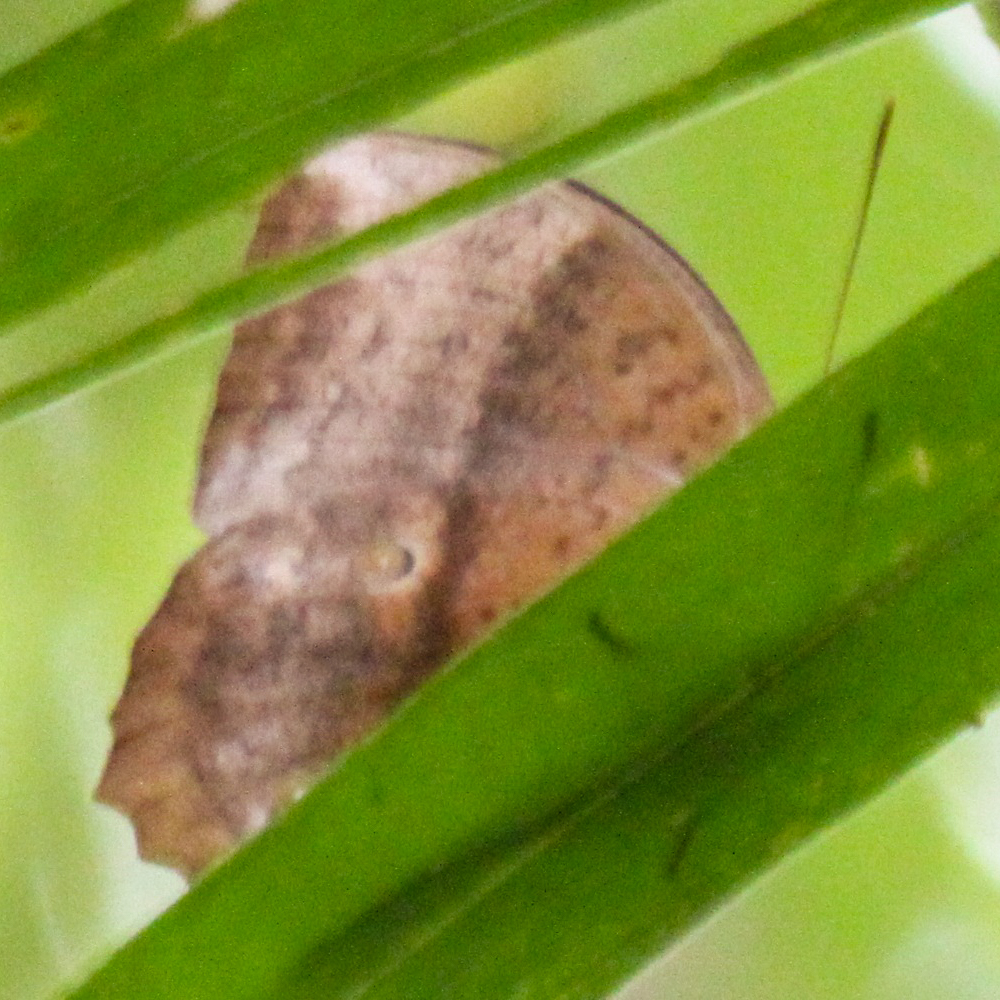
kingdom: Animalia
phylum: Arthropoda
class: Insecta
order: Lepidoptera
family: Nymphalidae
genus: Discophora
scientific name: Discophora sondaica
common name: Common duffer
